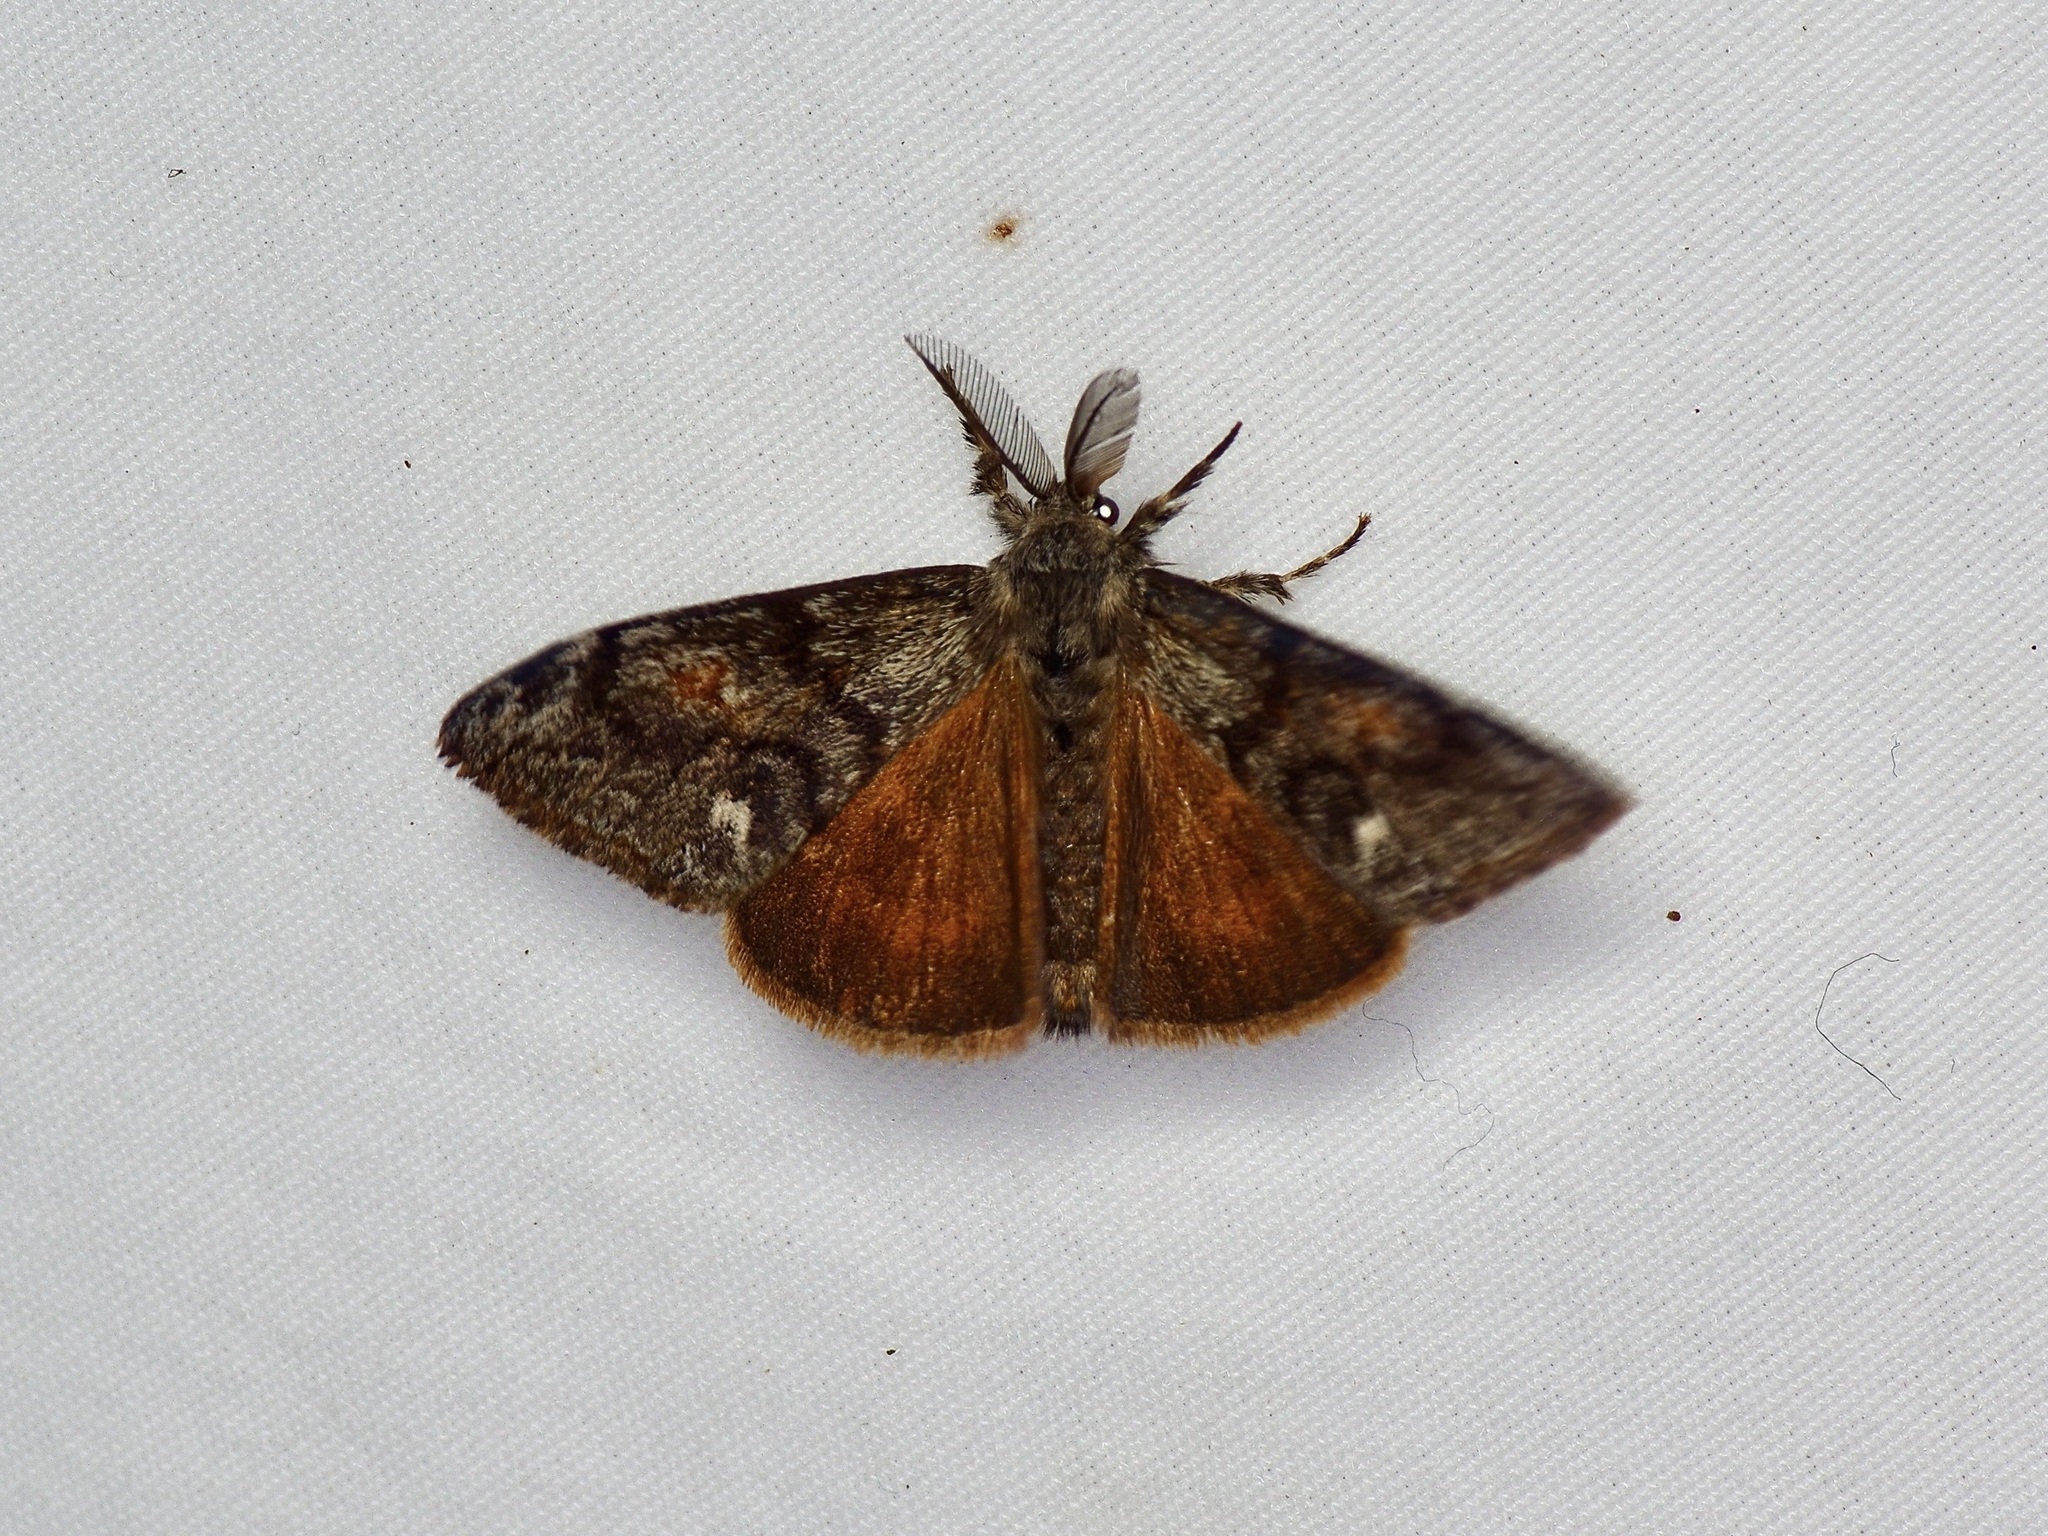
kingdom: Animalia
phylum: Arthropoda
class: Insecta
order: Lepidoptera
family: Erebidae
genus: Orgyia
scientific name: Orgyia pseudotsugata
